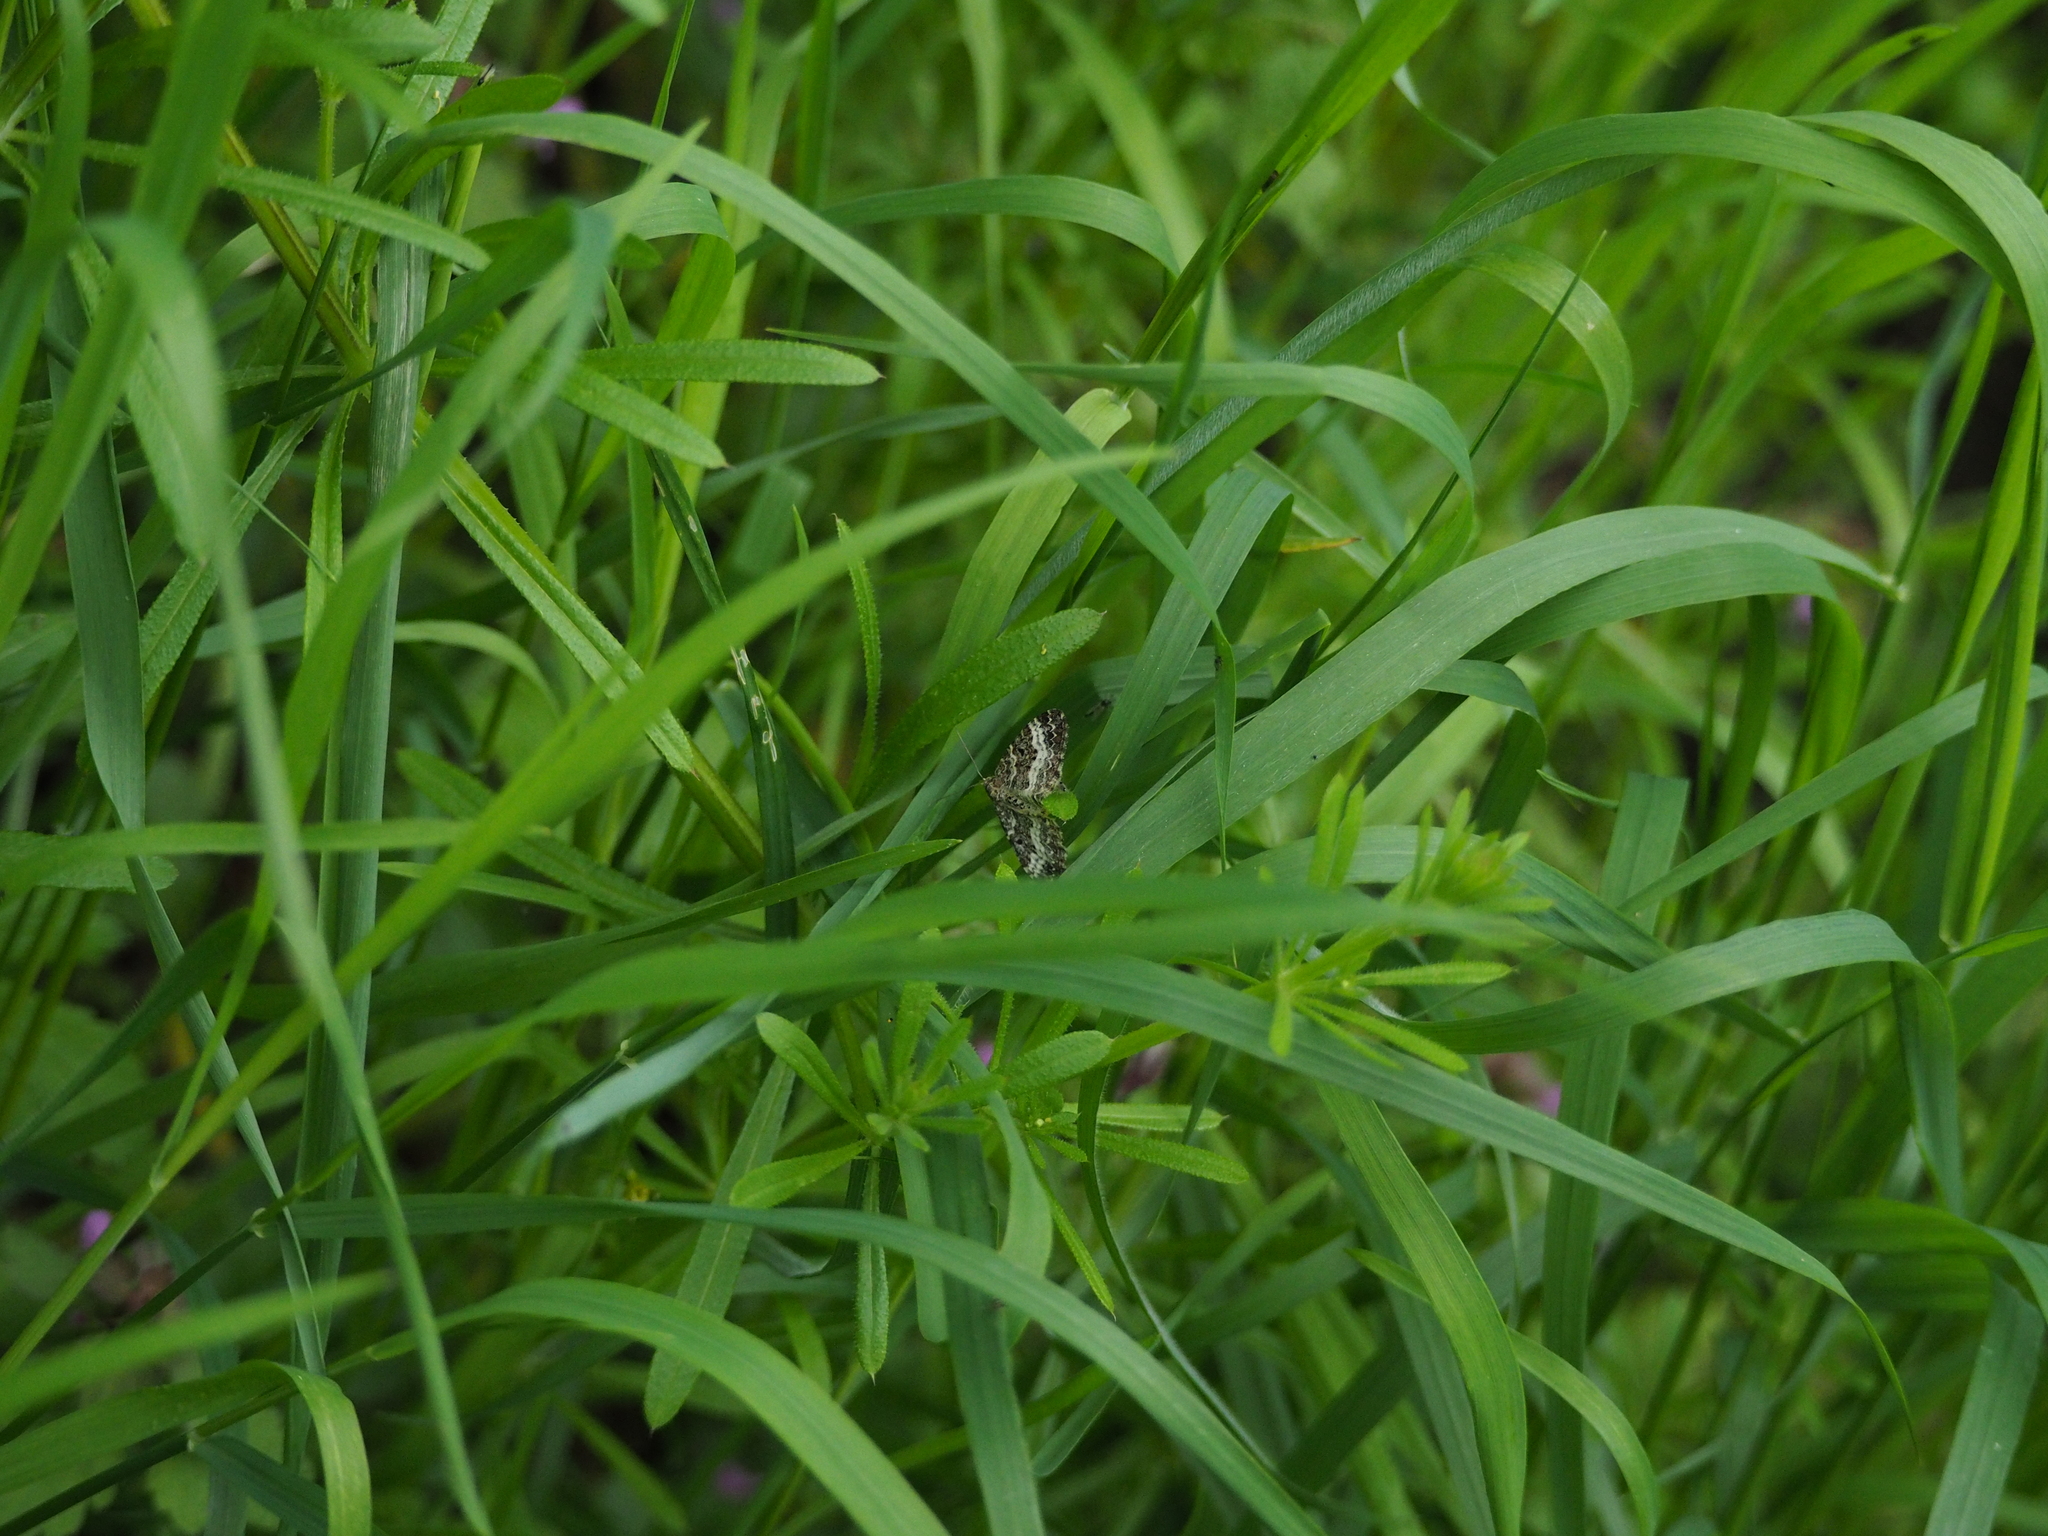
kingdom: Animalia
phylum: Arthropoda
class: Insecta
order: Lepidoptera
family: Geometridae
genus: Epirrhoe
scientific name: Epirrhoe alternata
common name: Common carpet
